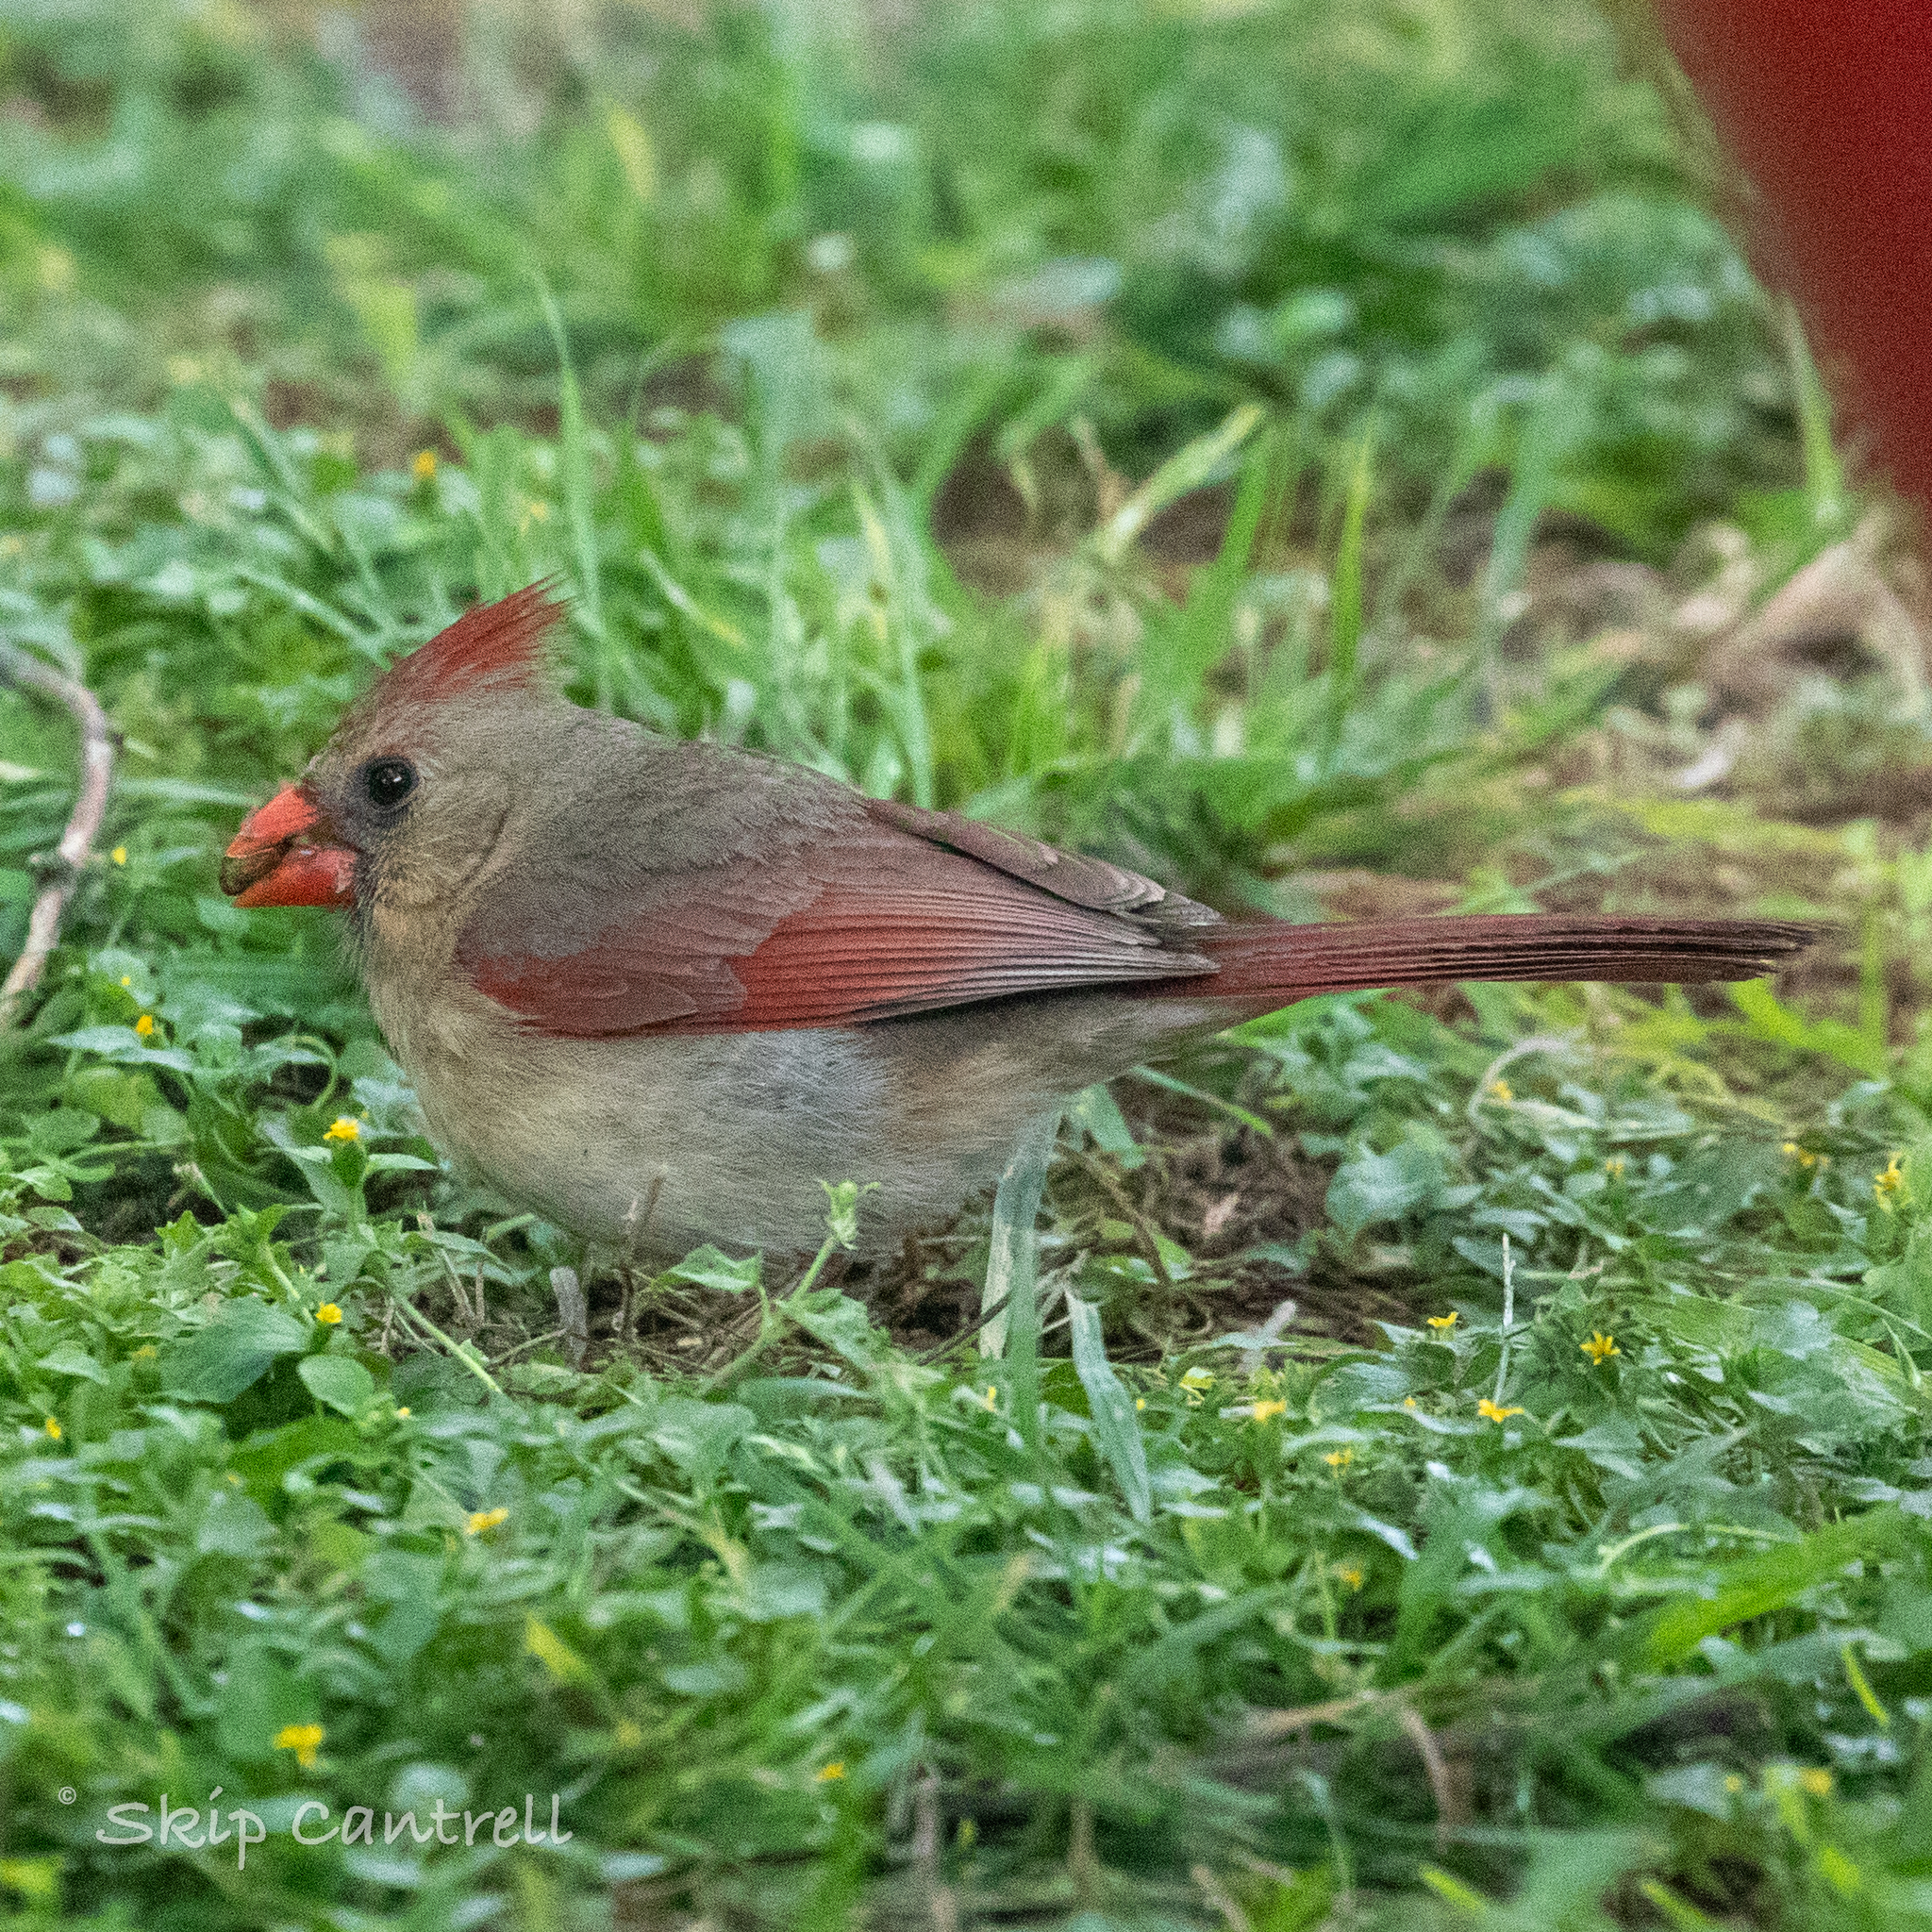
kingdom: Animalia
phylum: Chordata
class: Aves
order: Passeriformes
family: Cardinalidae
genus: Cardinalis
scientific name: Cardinalis cardinalis
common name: Northern cardinal
